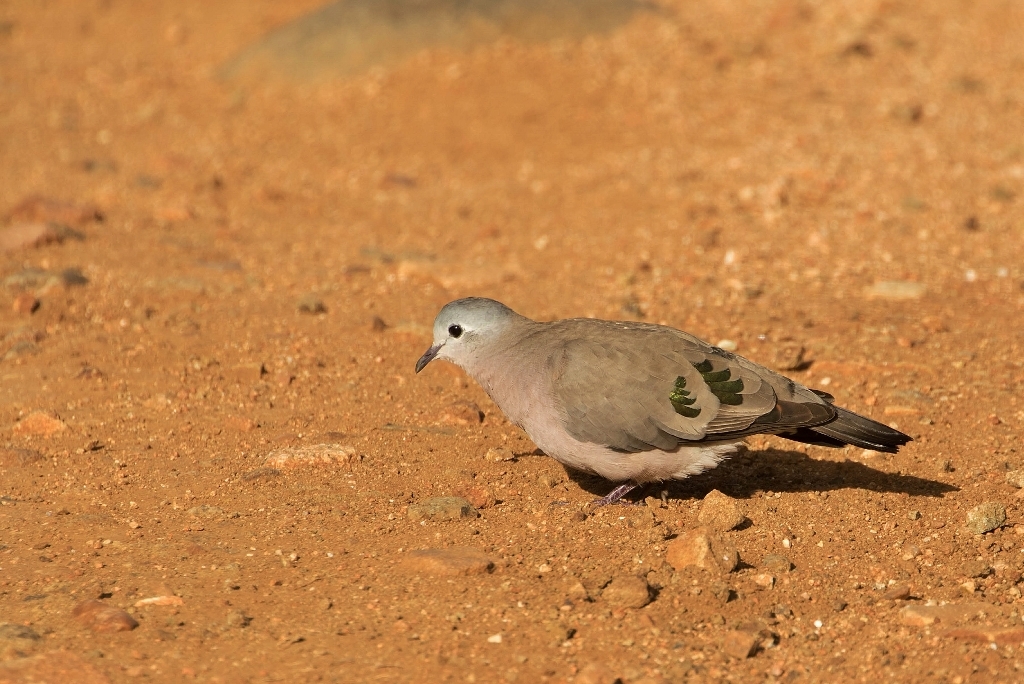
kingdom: Animalia
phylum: Chordata
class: Aves
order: Columbiformes
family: Columbidae
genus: Turtur
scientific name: Turtur chalcospilos
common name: Emerald-spotted wood dove
